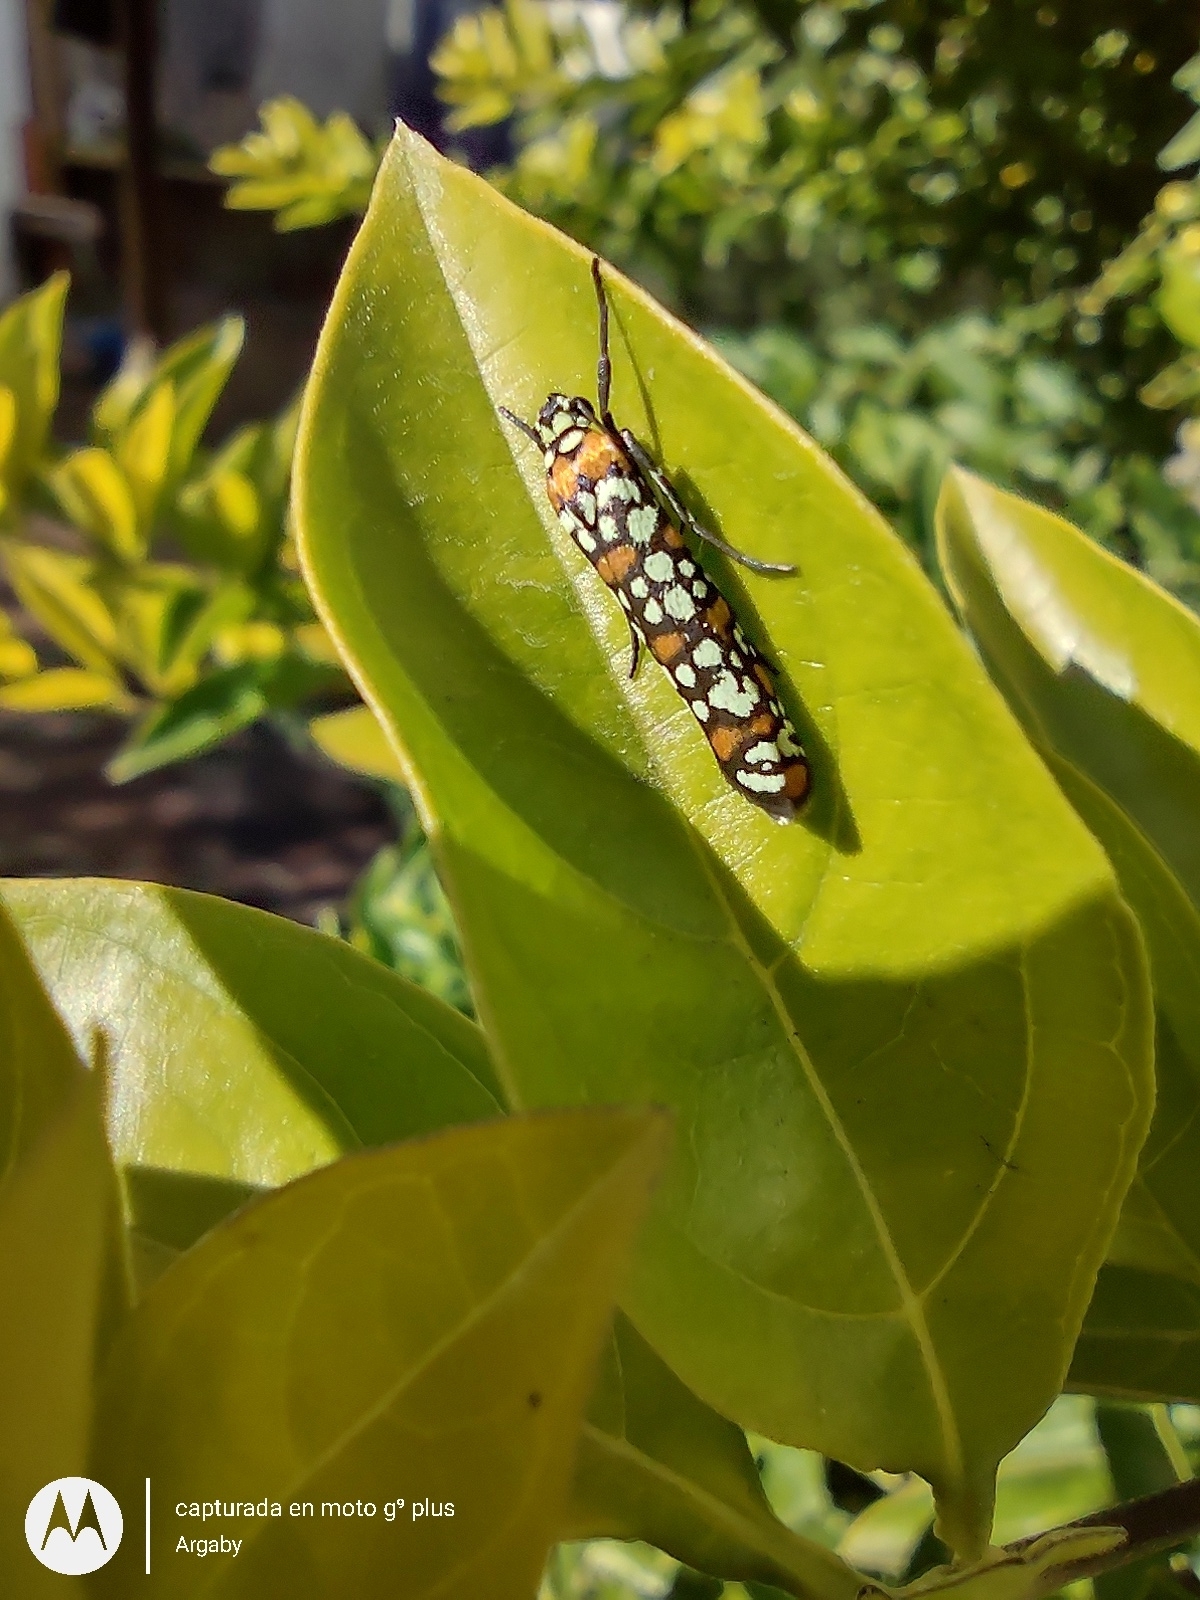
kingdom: Animalia
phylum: Arthropoda
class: Insecta
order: Lepidoptera
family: Attevidae
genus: Atteva
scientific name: Atteva punctella
